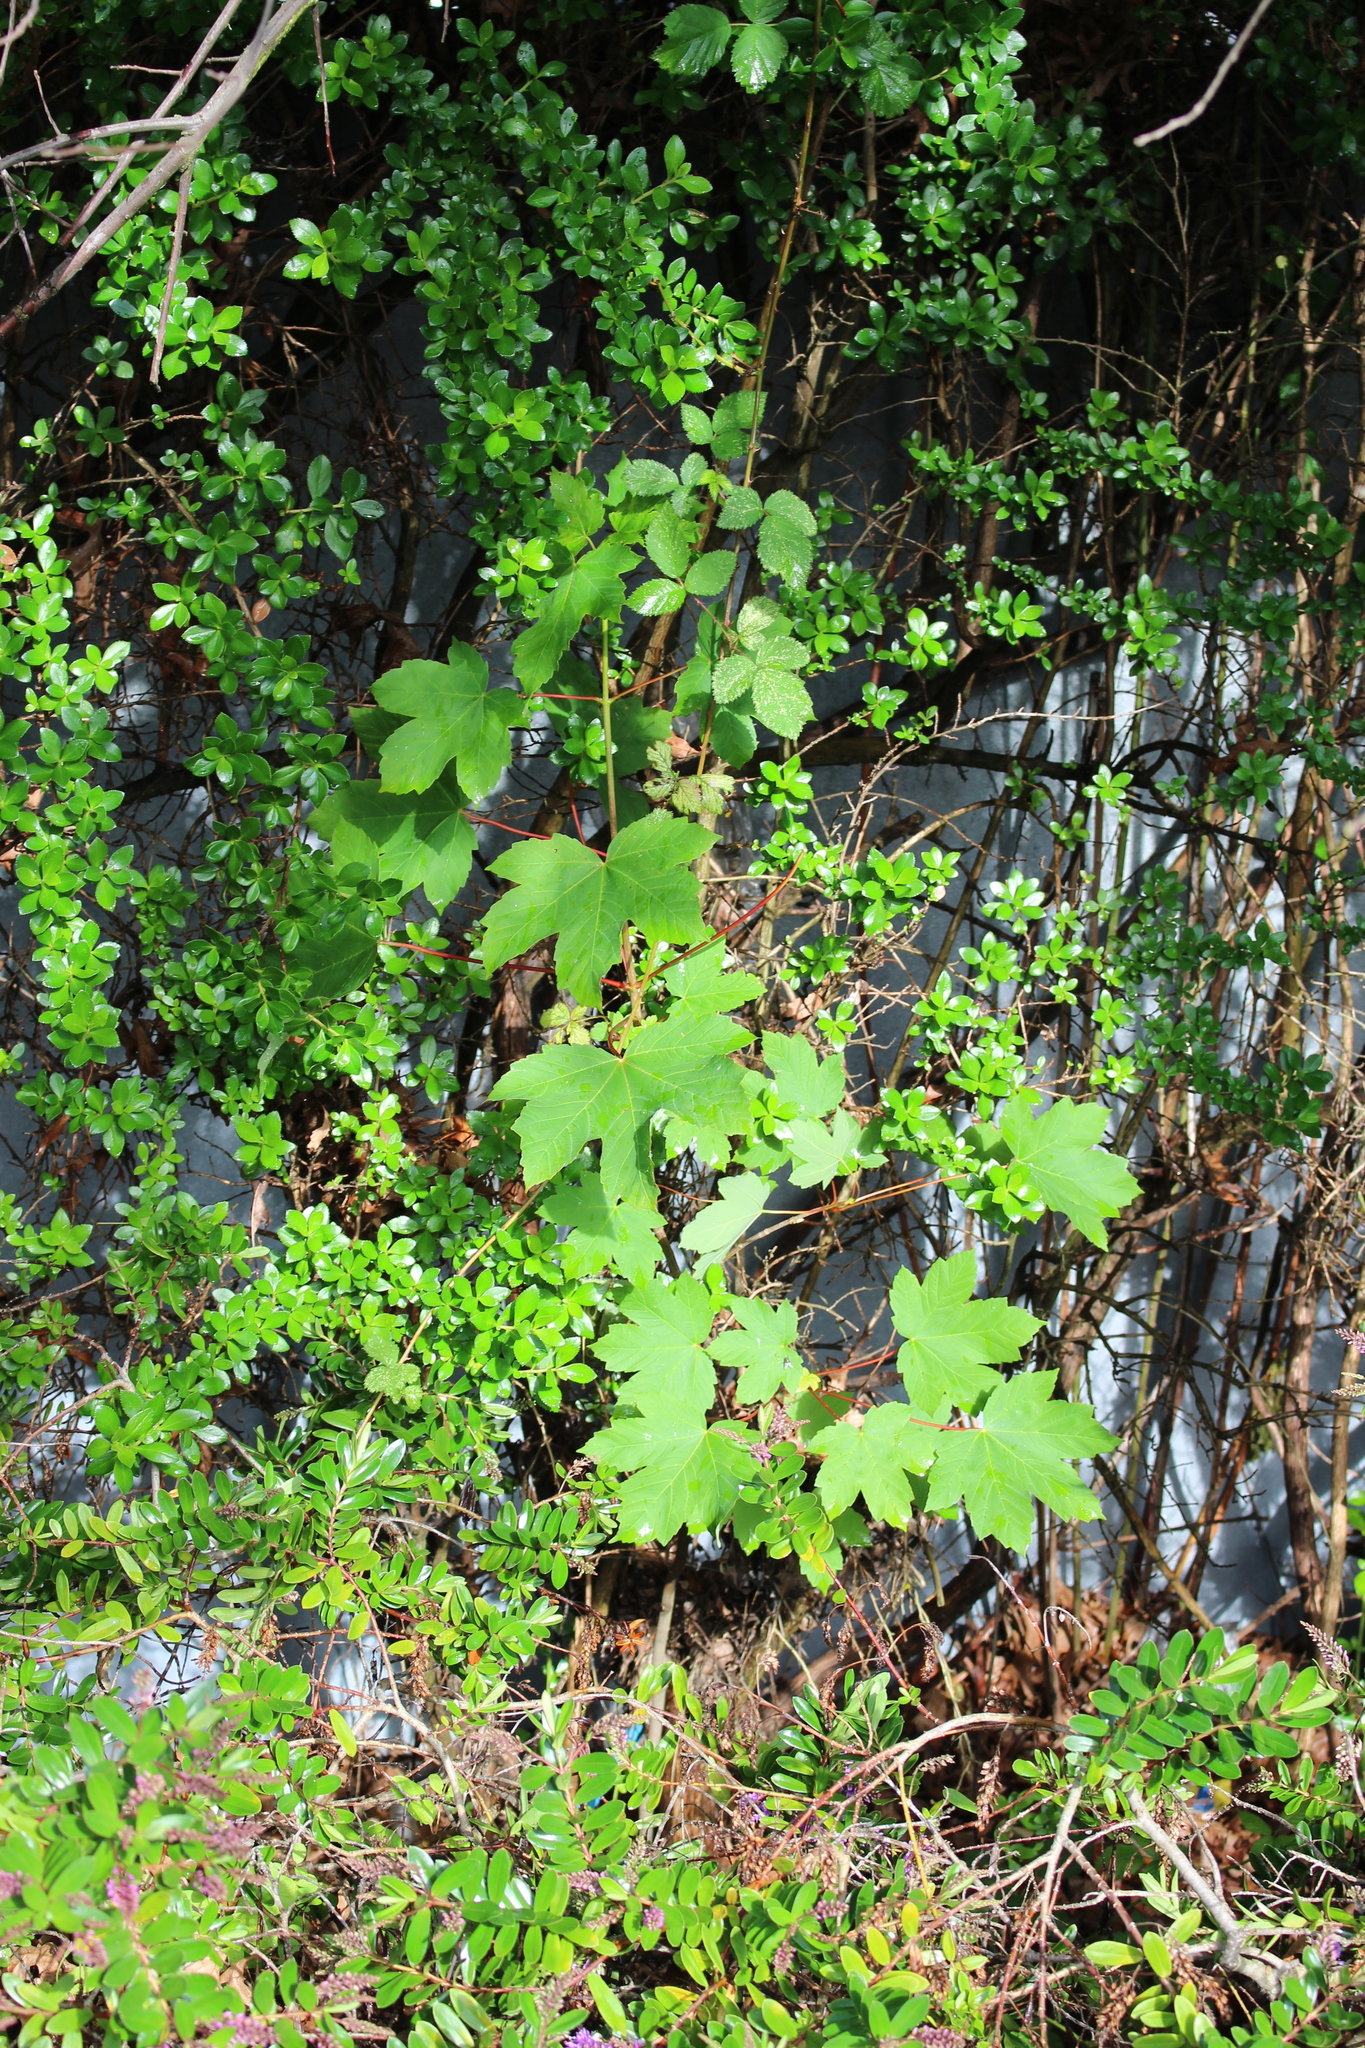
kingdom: Plantae
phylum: Tracheophyta
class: Magnoliopsida
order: Sapindales
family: Sapindaceae
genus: Acer
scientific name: Acer pseudoplatanus
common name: Sycamore
